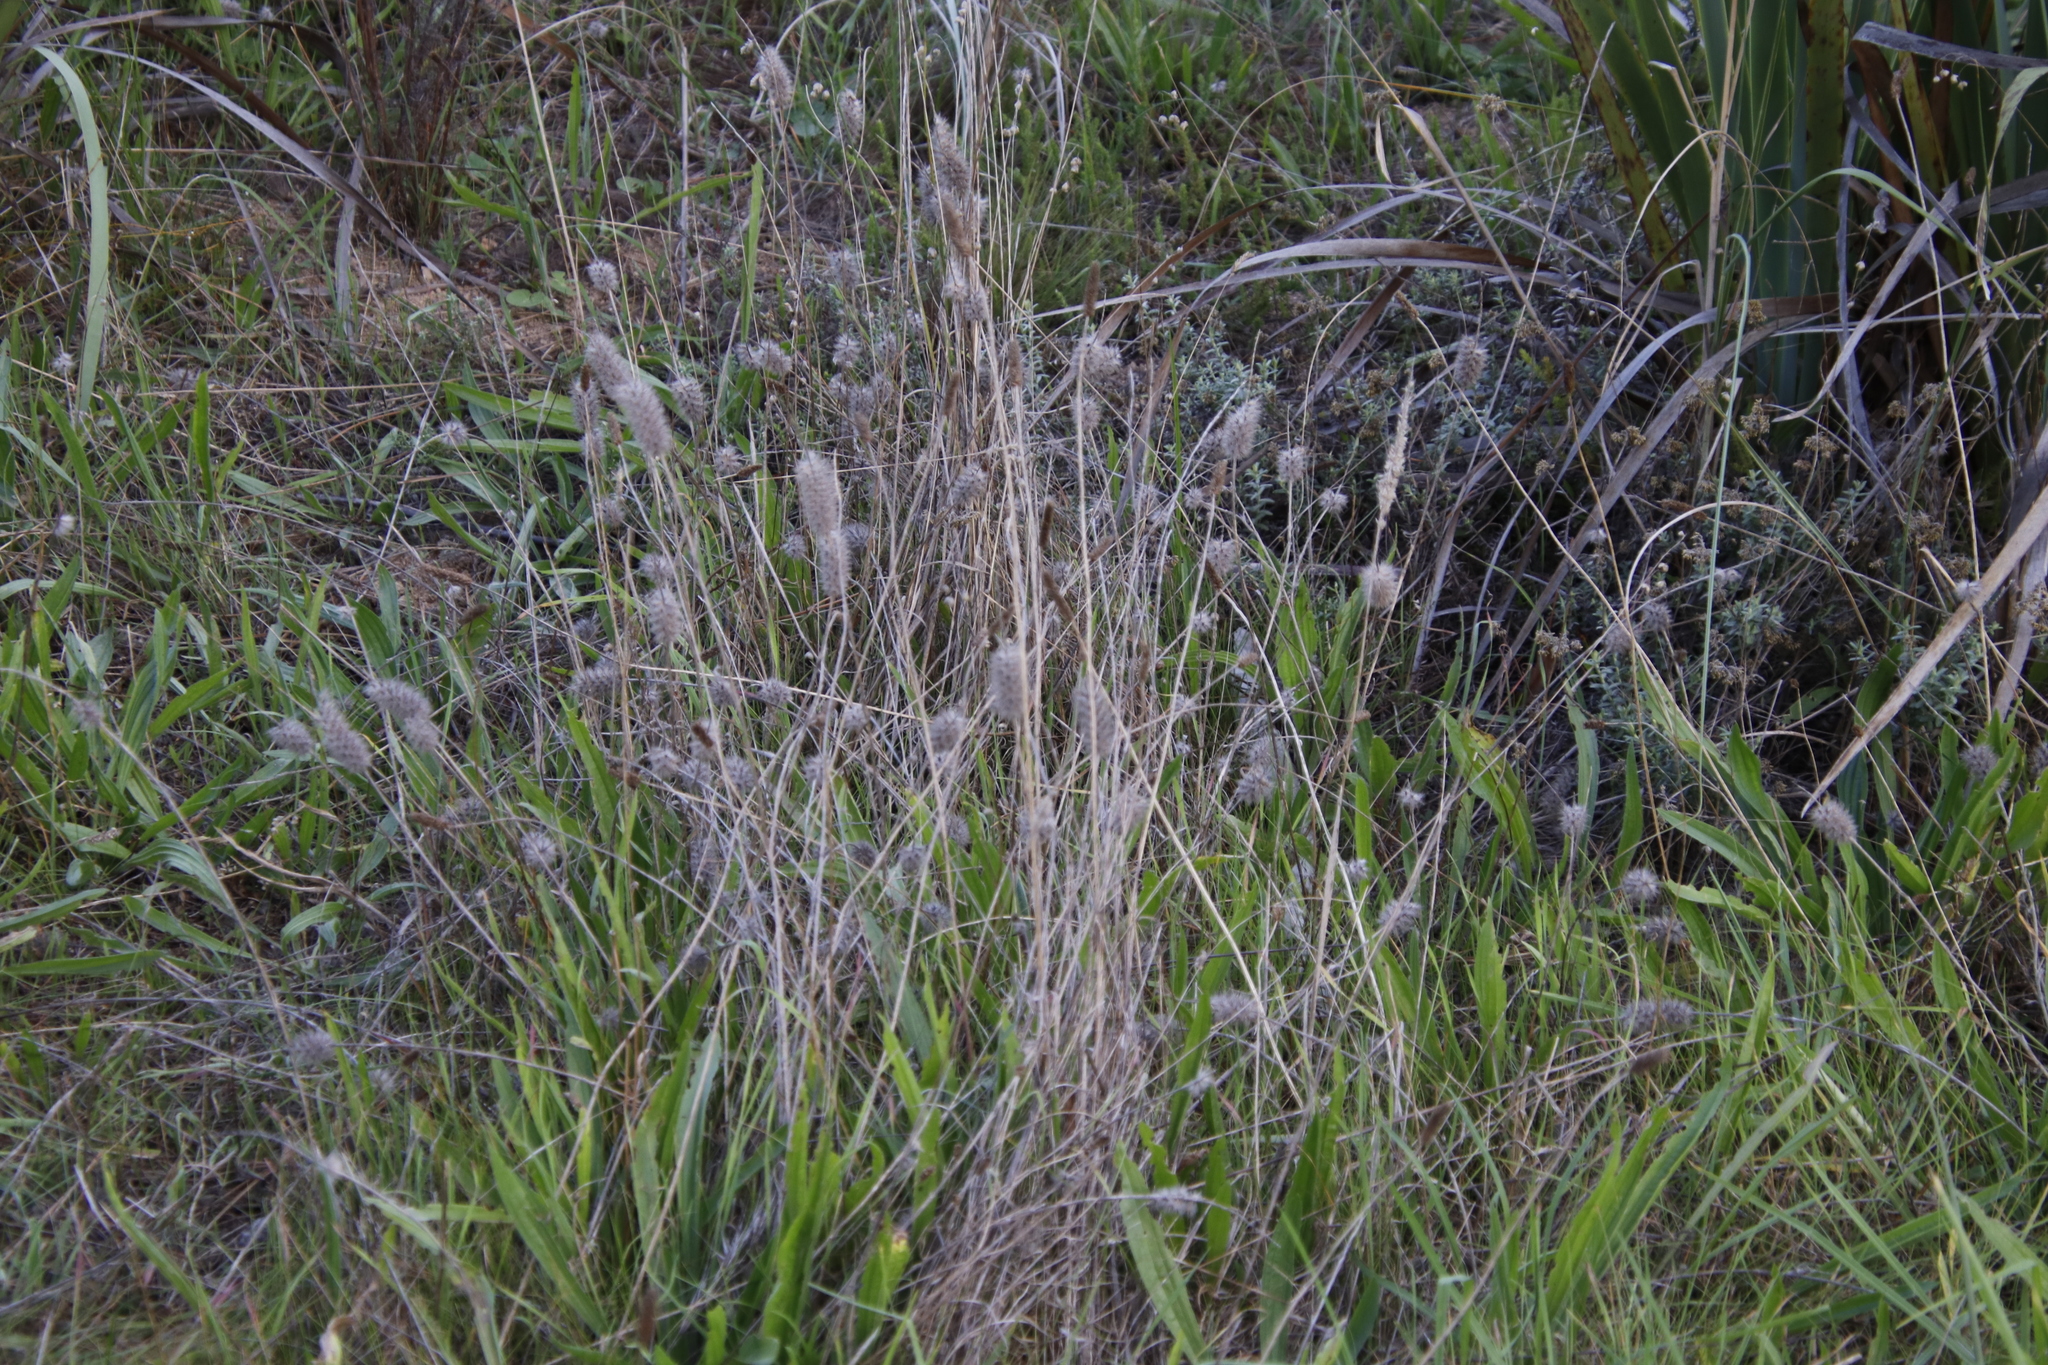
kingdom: Plantae
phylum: Tracheophyta
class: Magnoliopsida
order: Fabales
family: Fabaceae
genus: Trifolium
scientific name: Trifolium angustifolium
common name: Narrow clover
